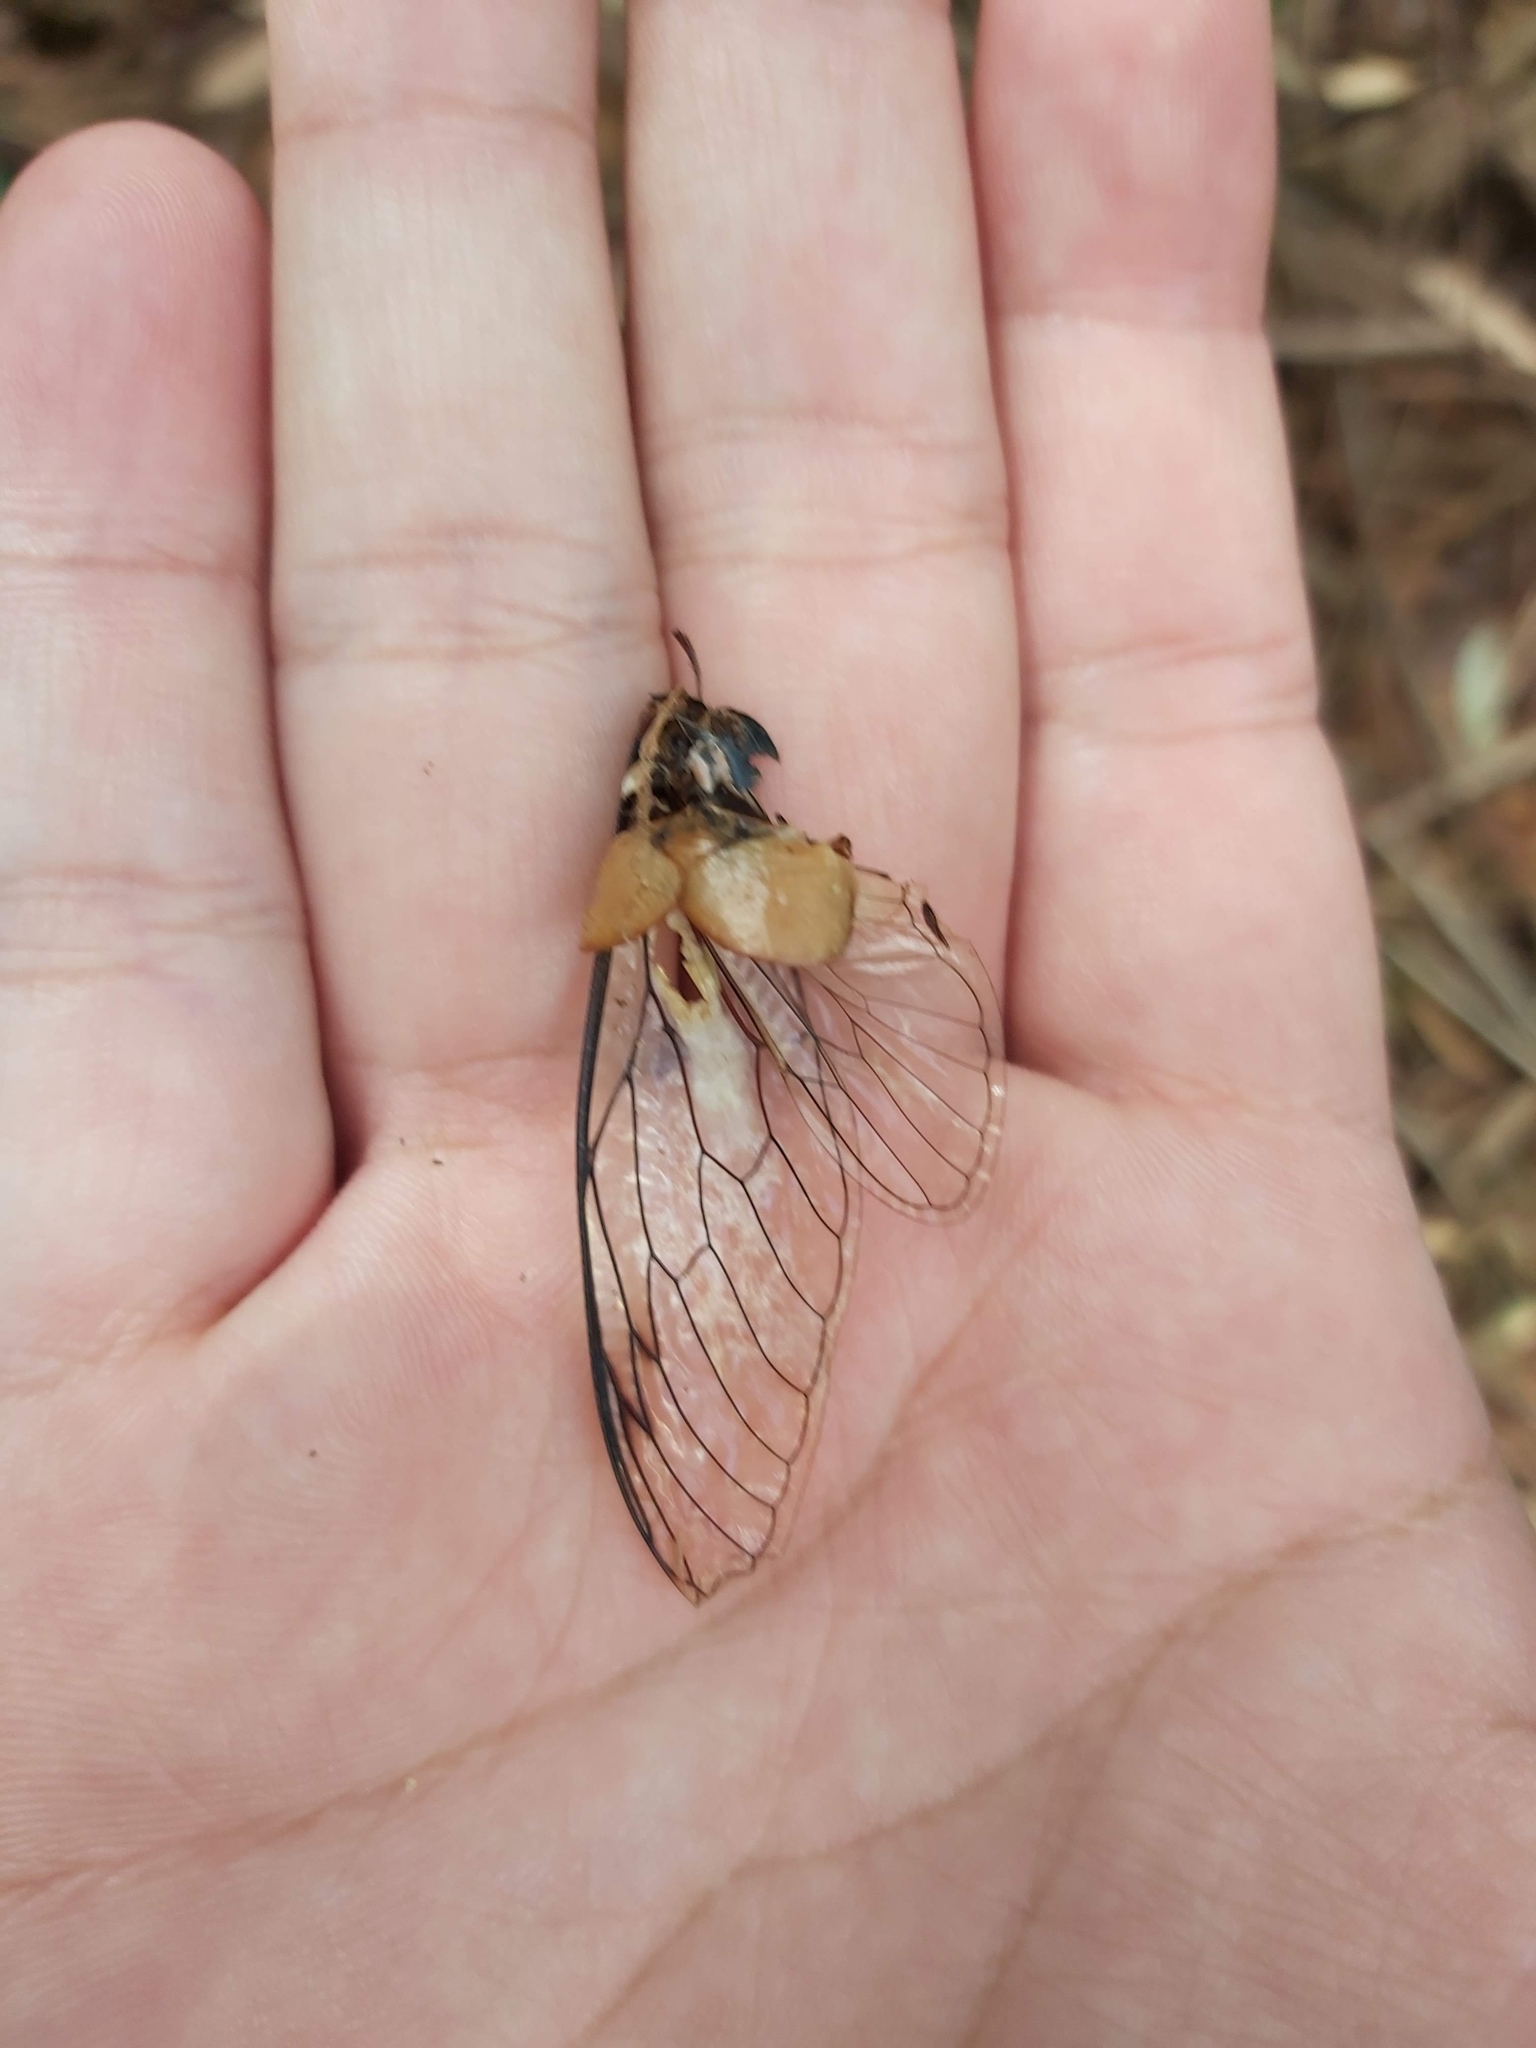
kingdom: Animalia
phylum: Arthropoda
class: Insecta
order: Hemiptera
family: Cicadidae
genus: Psaltoda
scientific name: Psaltoda plaga
